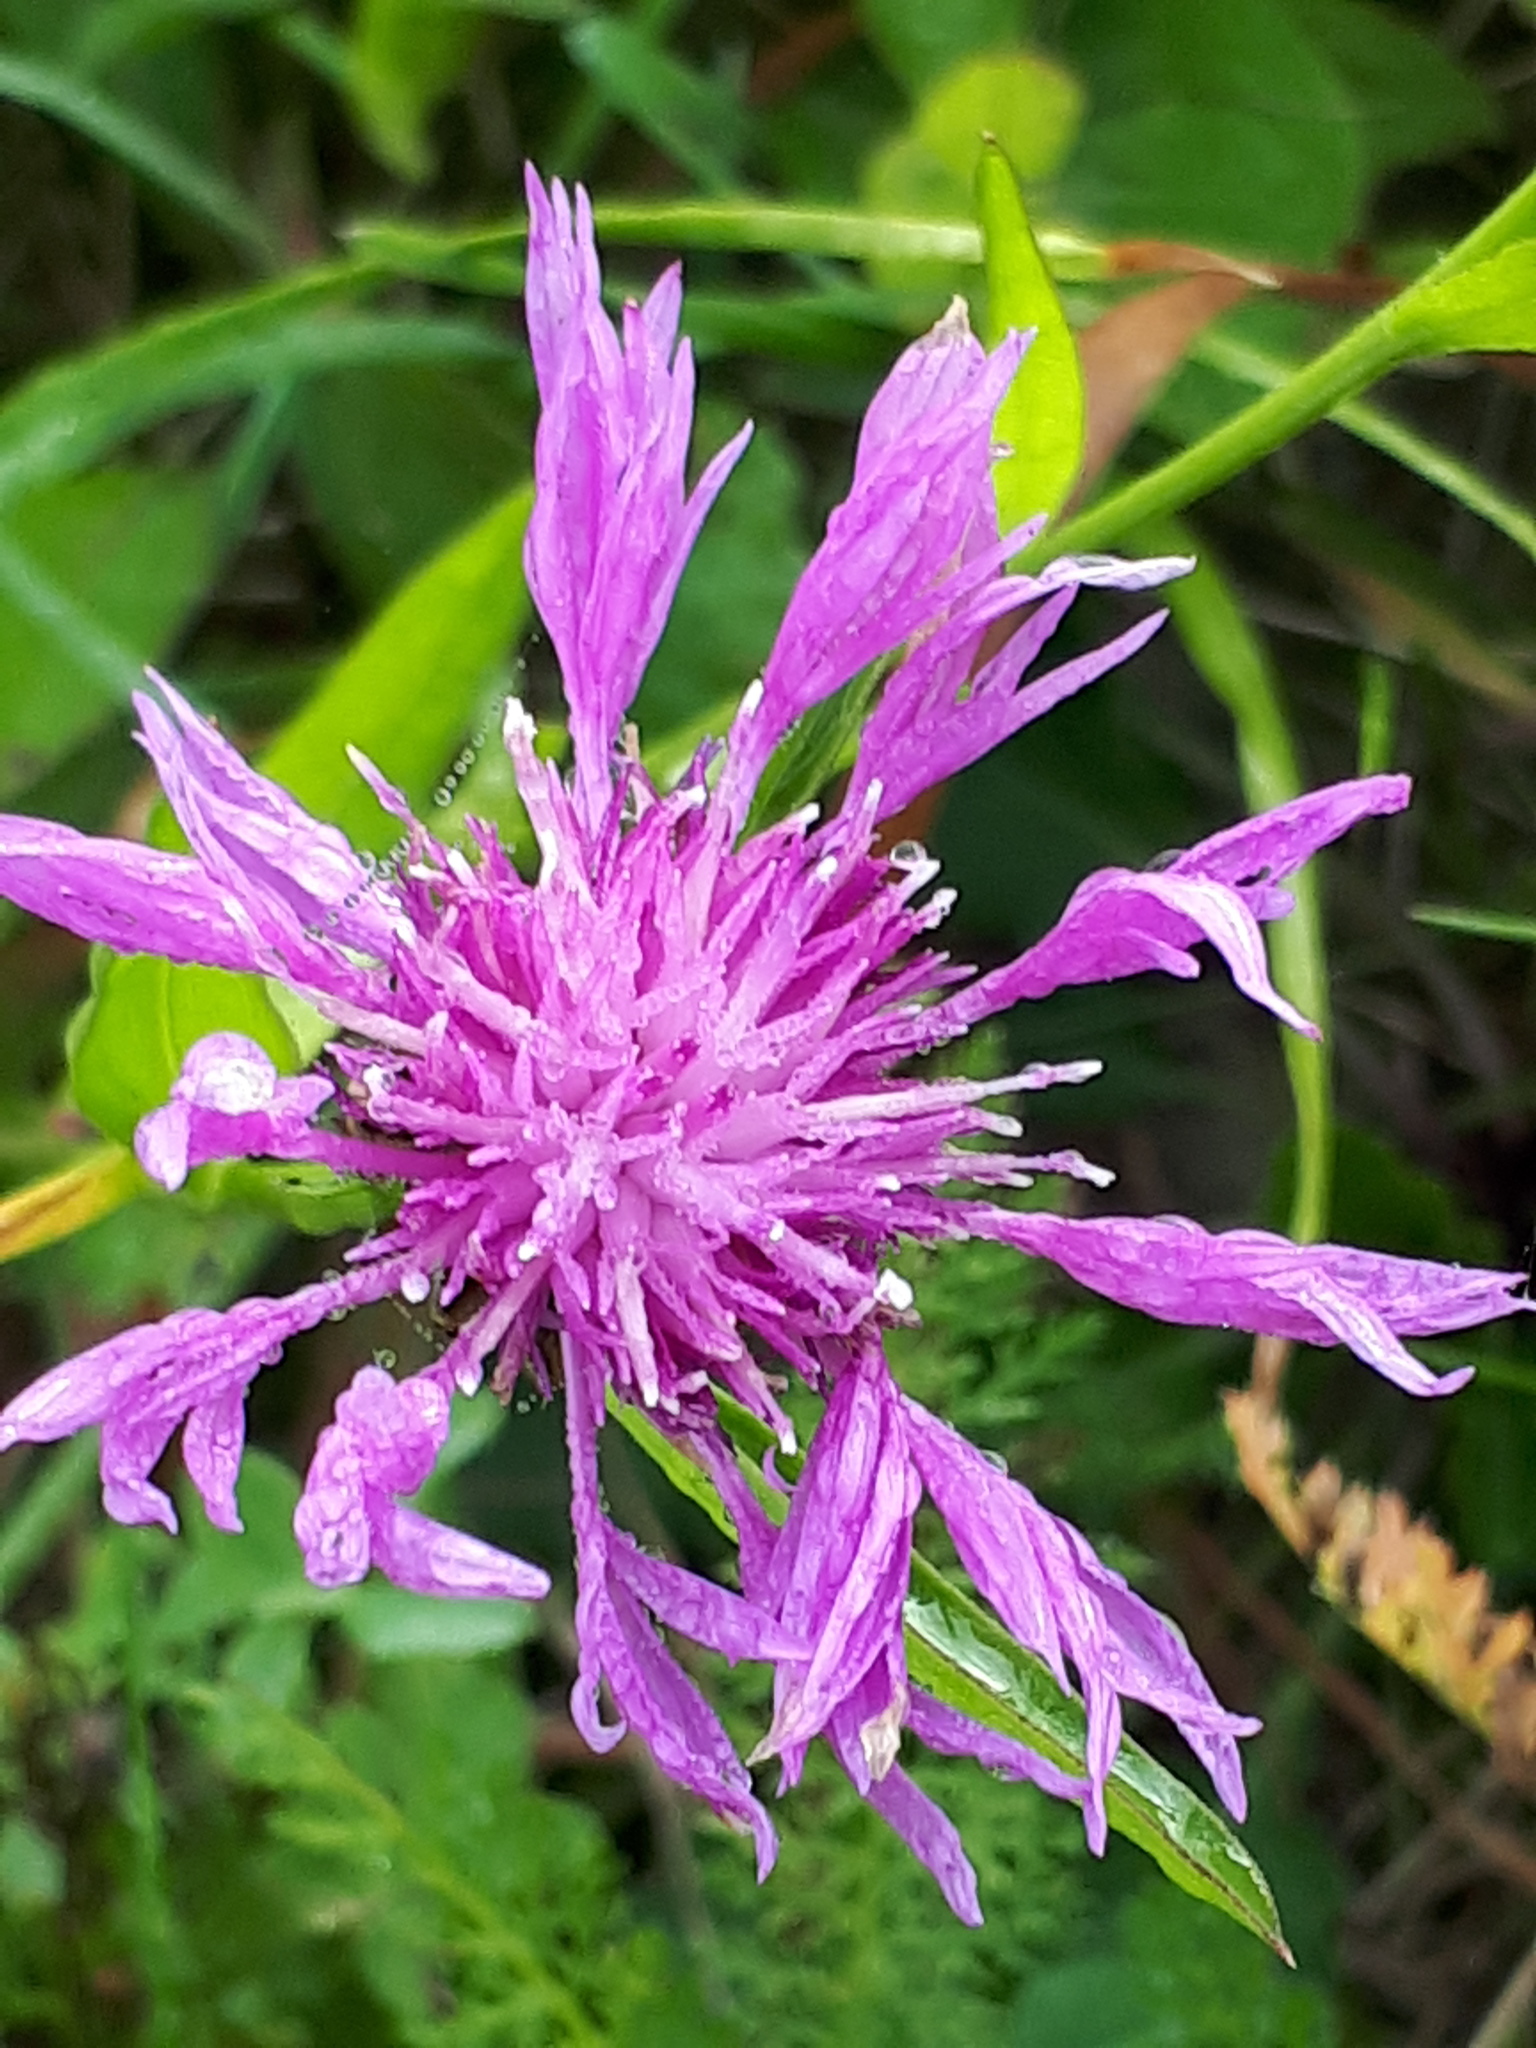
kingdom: Plantae
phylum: Tracheophyta
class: Magnoliopsida
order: Asterales
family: Asteraceae
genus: Centaurea
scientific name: Centaurea jacea
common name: Brown knapweed
